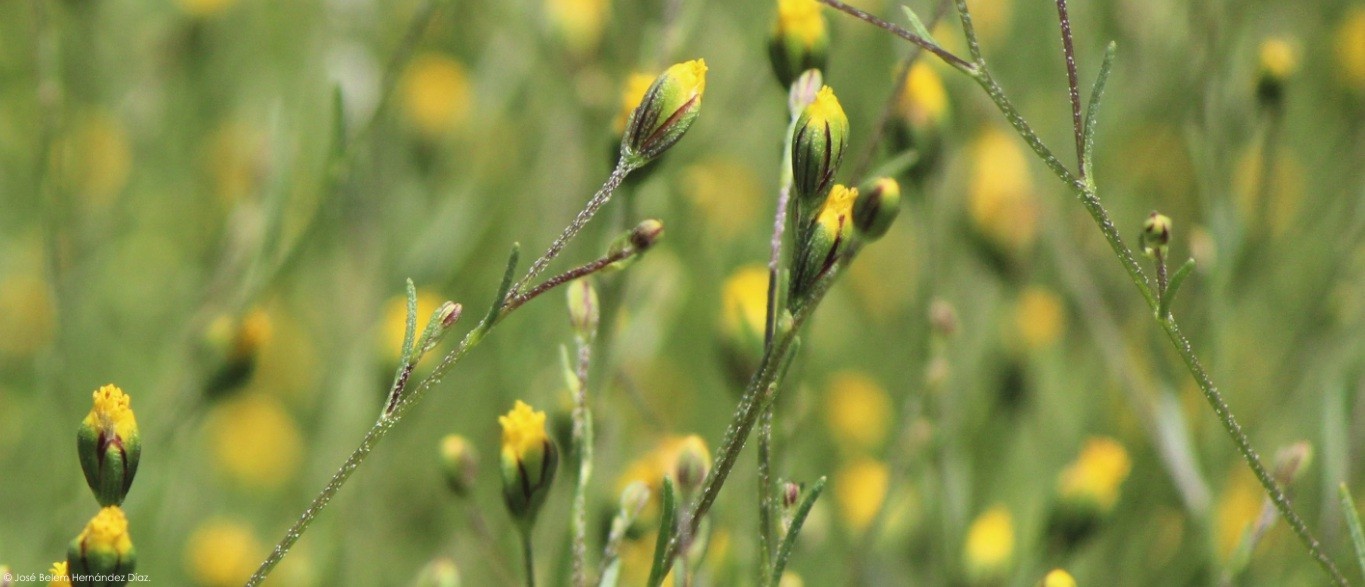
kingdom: Plantae
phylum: Tracheophyta
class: Magnoliopsida
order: Asterales
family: Asteraceae
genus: Schkuhria
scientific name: Schkuhria pinnata
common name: Dwarf marigold
